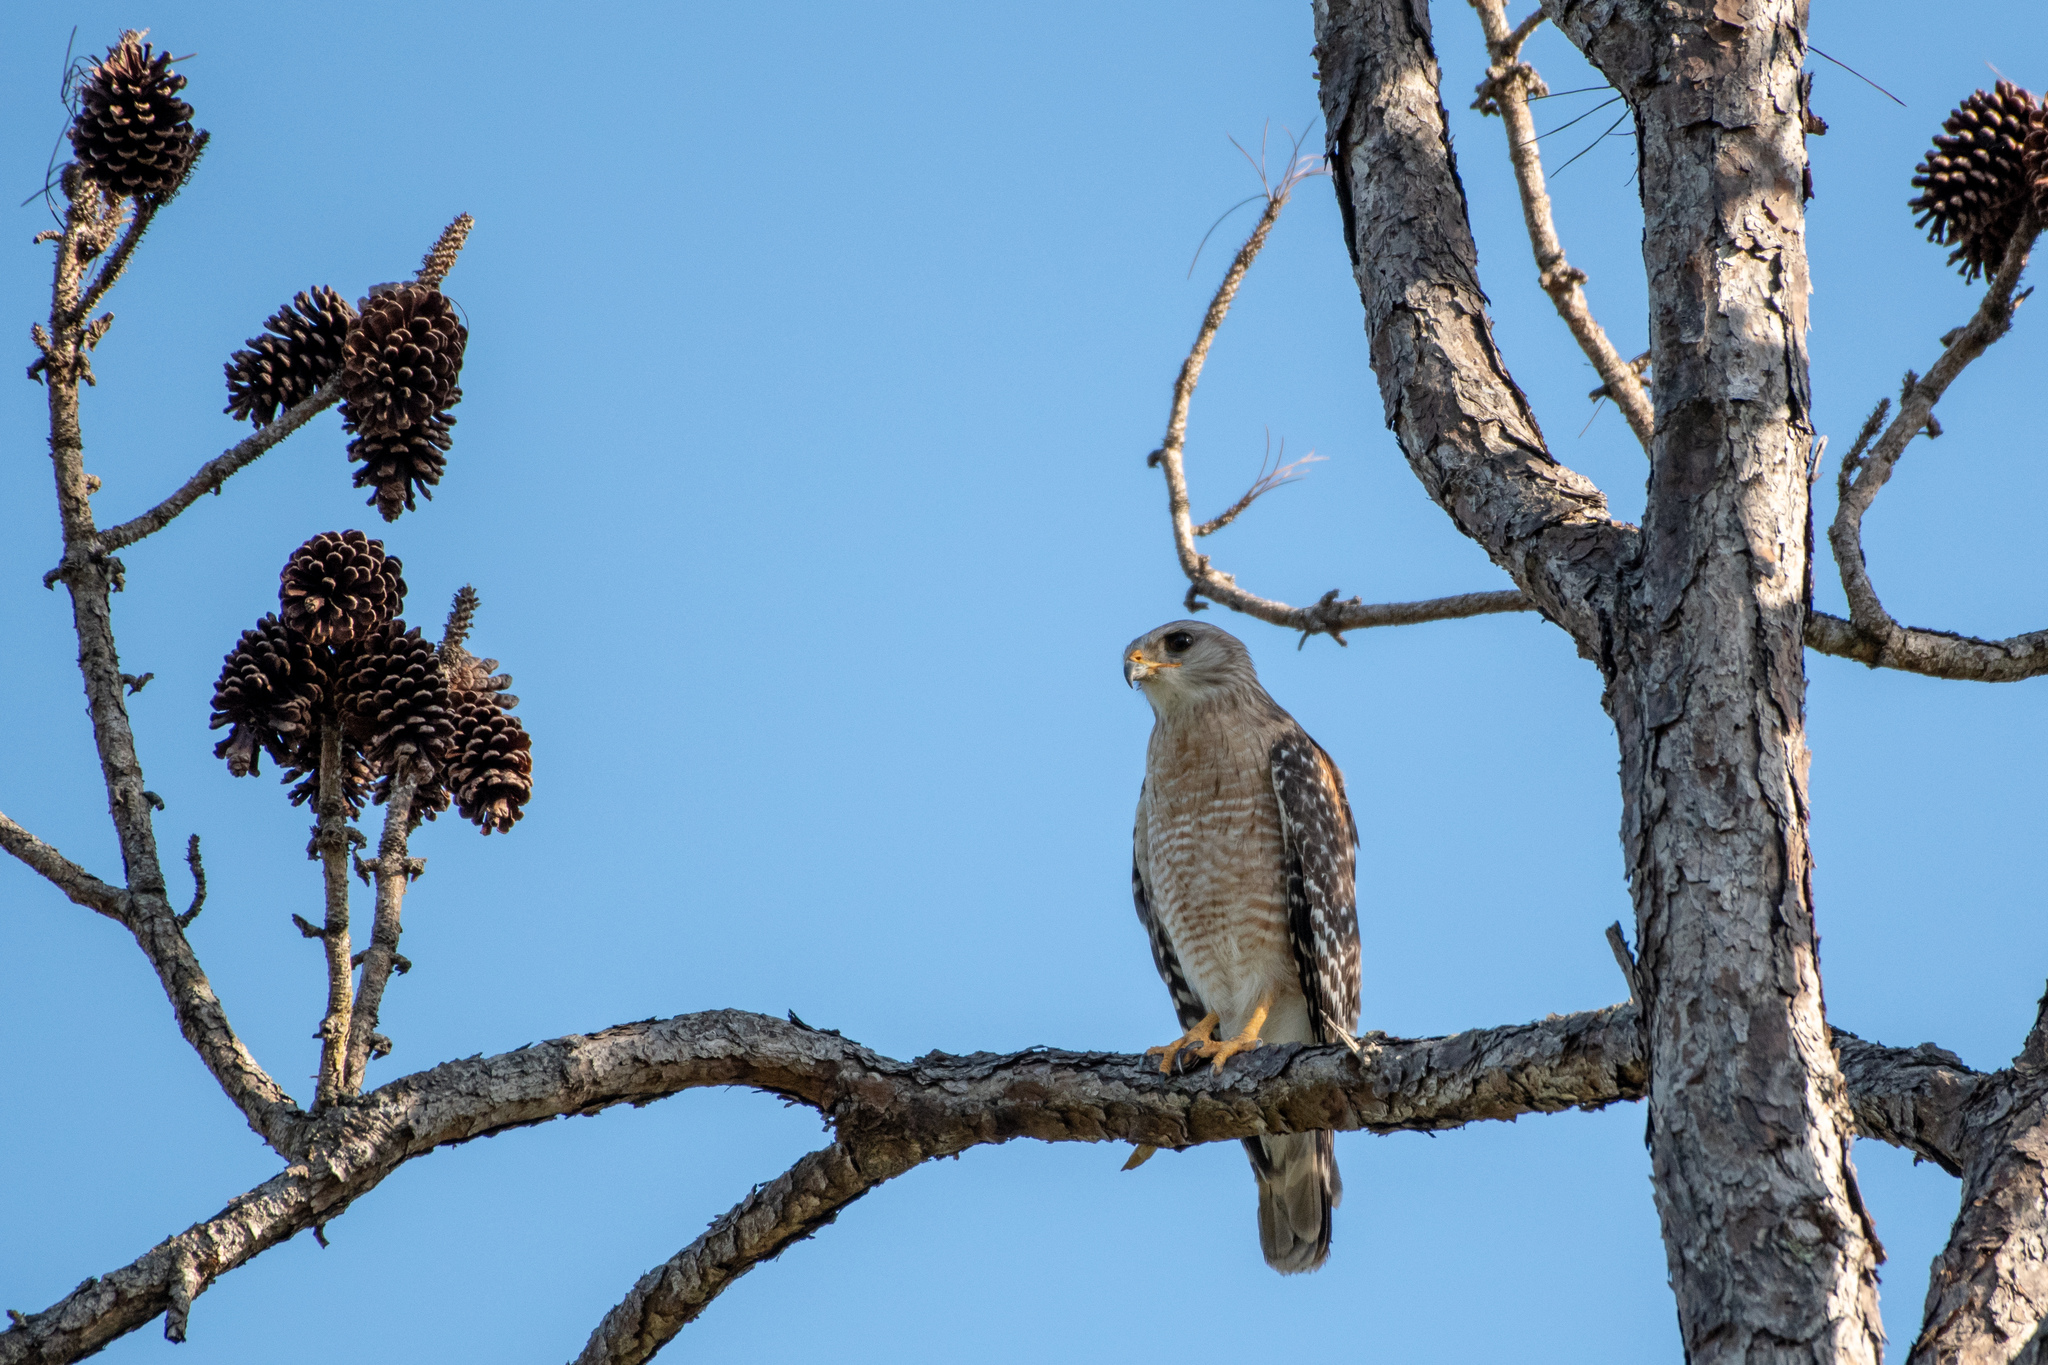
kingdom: Animalia
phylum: Chordata
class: Aves
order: Accipitriformes
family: Accipitridae
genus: Buteo
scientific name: Buteo lineatus
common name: Red-shouldered hawk
